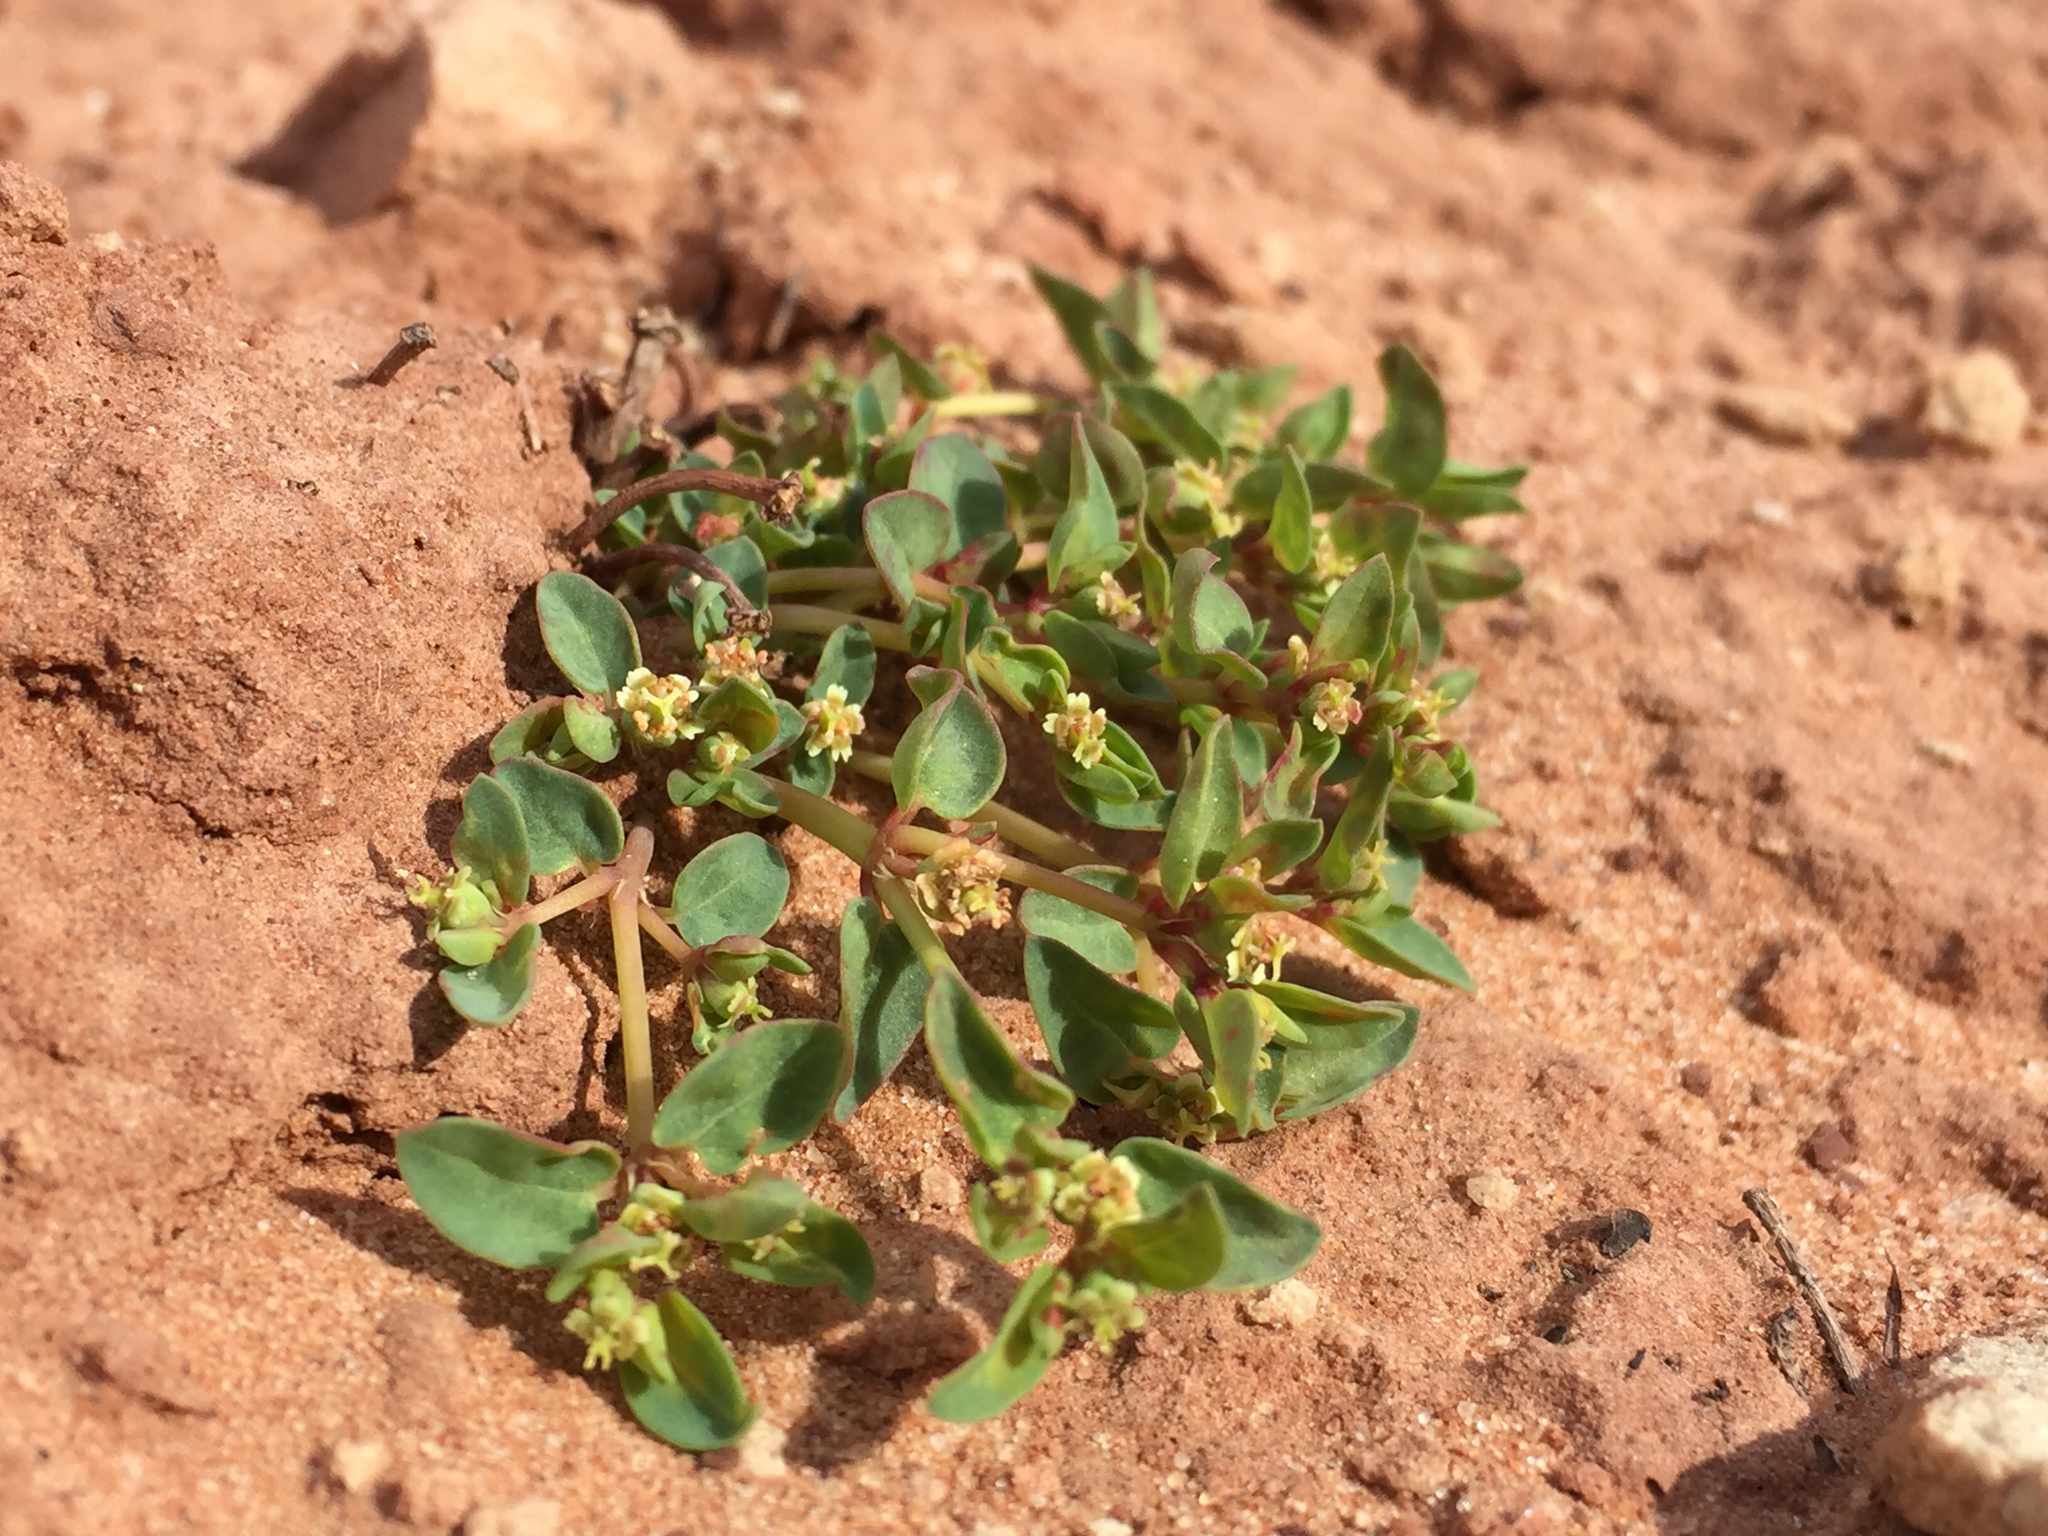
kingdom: Plantae
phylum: Tracheophyta
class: Magnoliopsida
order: Malpighiales
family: Euphorbiaceae
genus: Euphorbia
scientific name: Euphorbia fendleri
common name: Fendler's euphorbia
